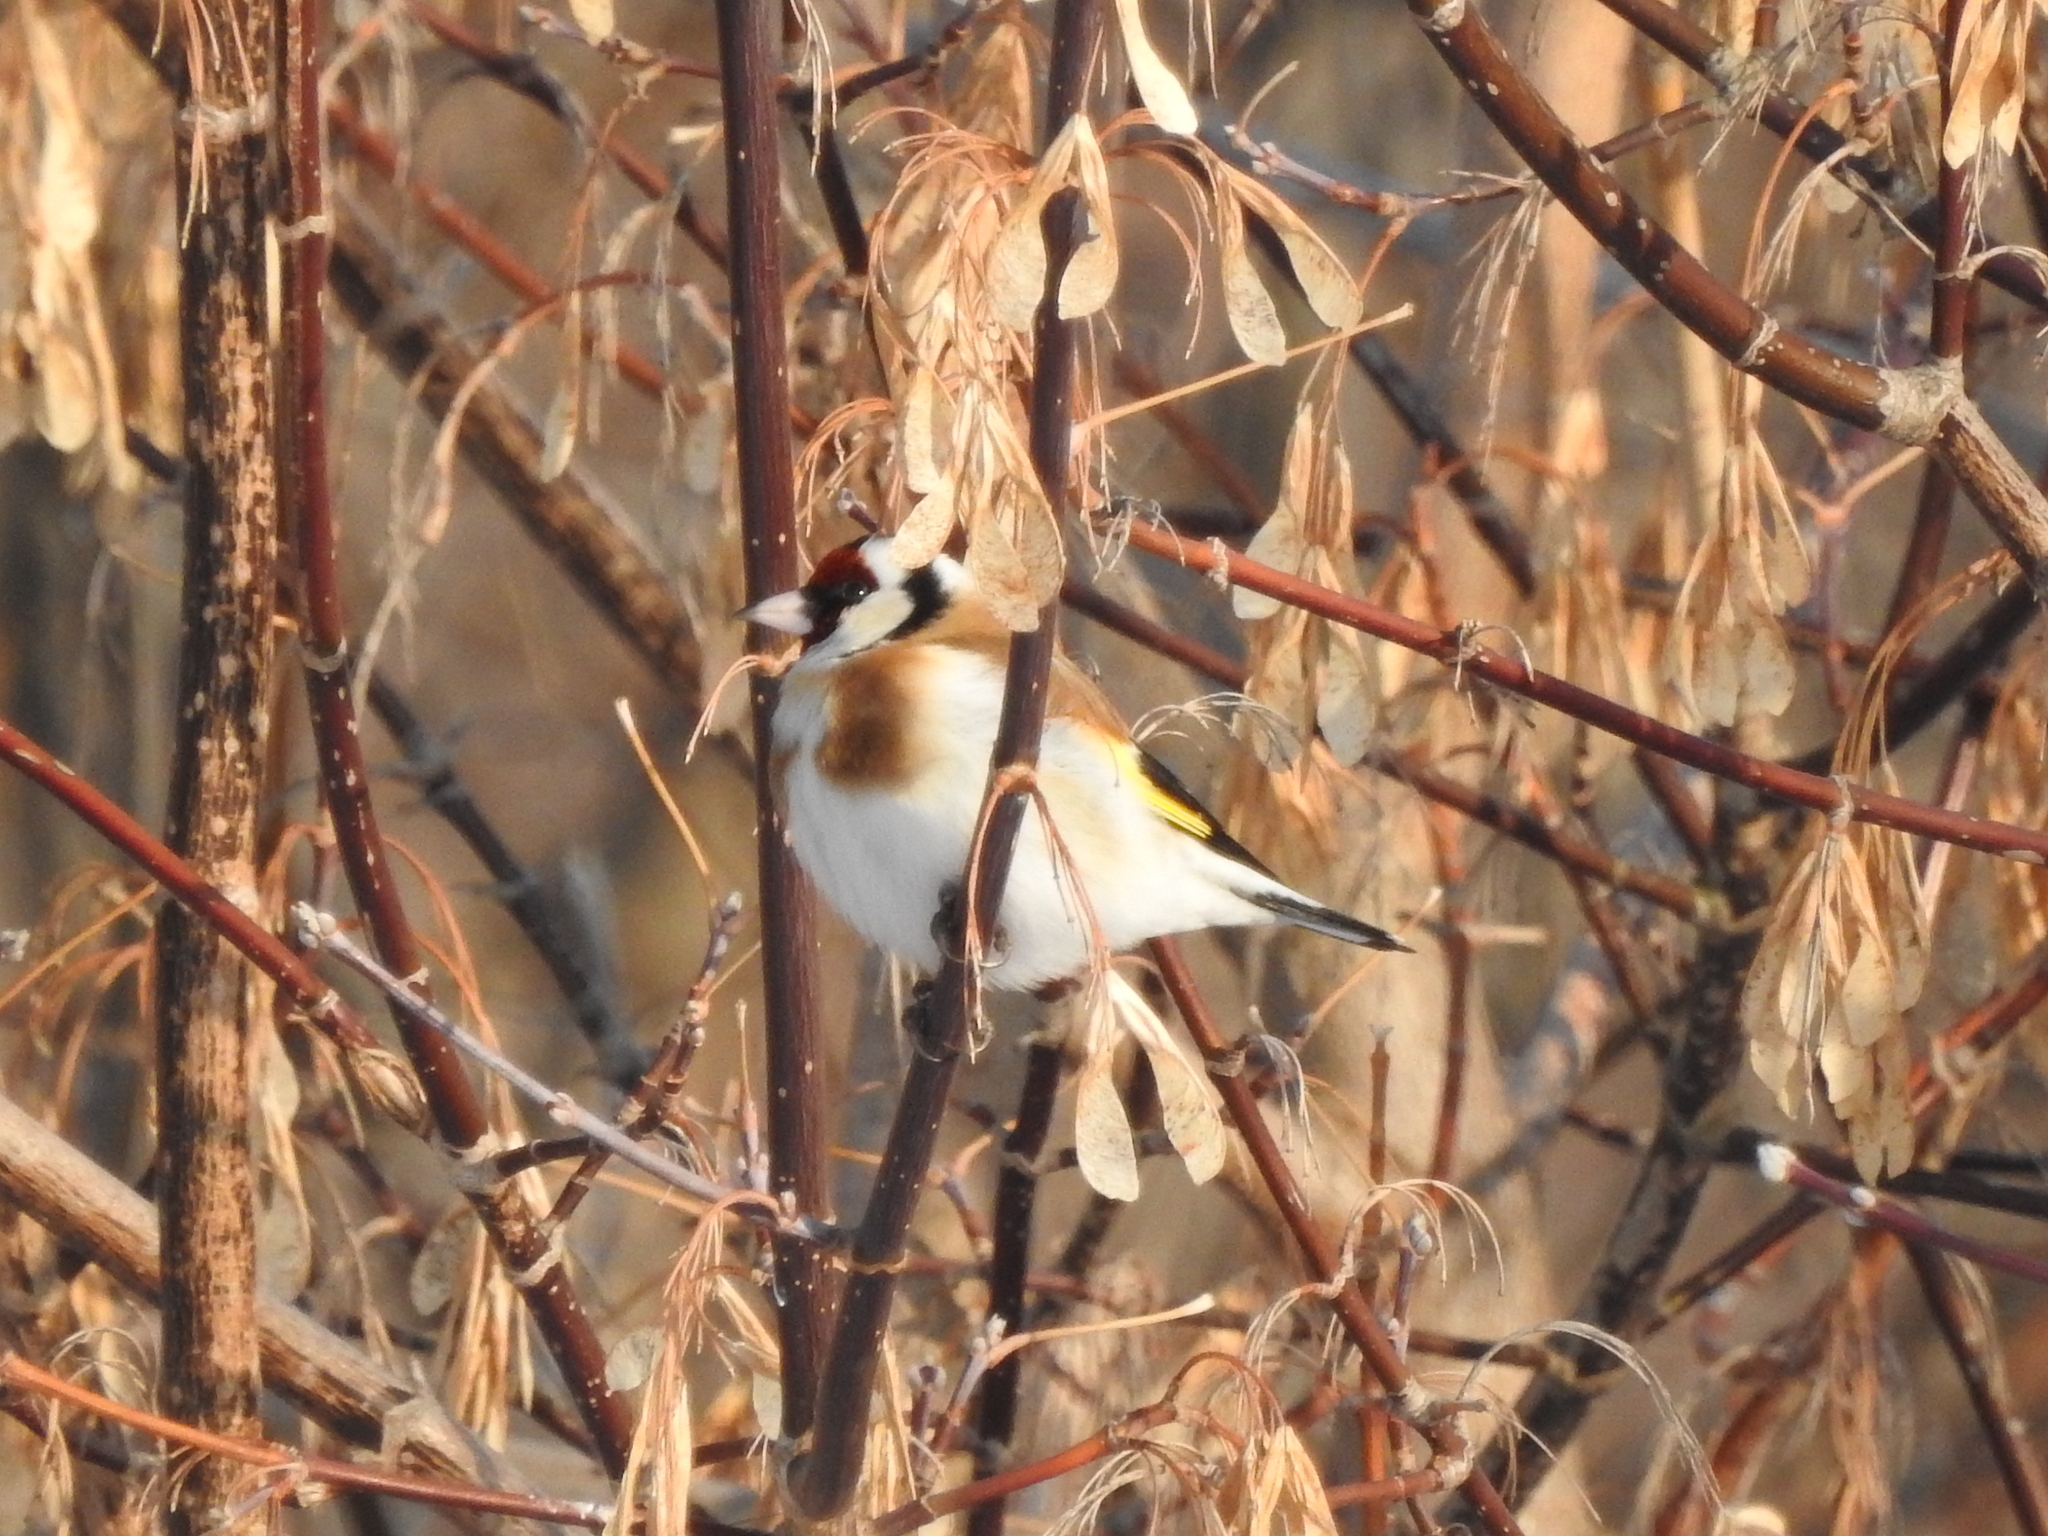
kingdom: Animalia
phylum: Chordata
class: Aves
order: Passeriformes
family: Fringillidae
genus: Carduelis
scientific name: Carduelis carduelis
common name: European goldfinch
